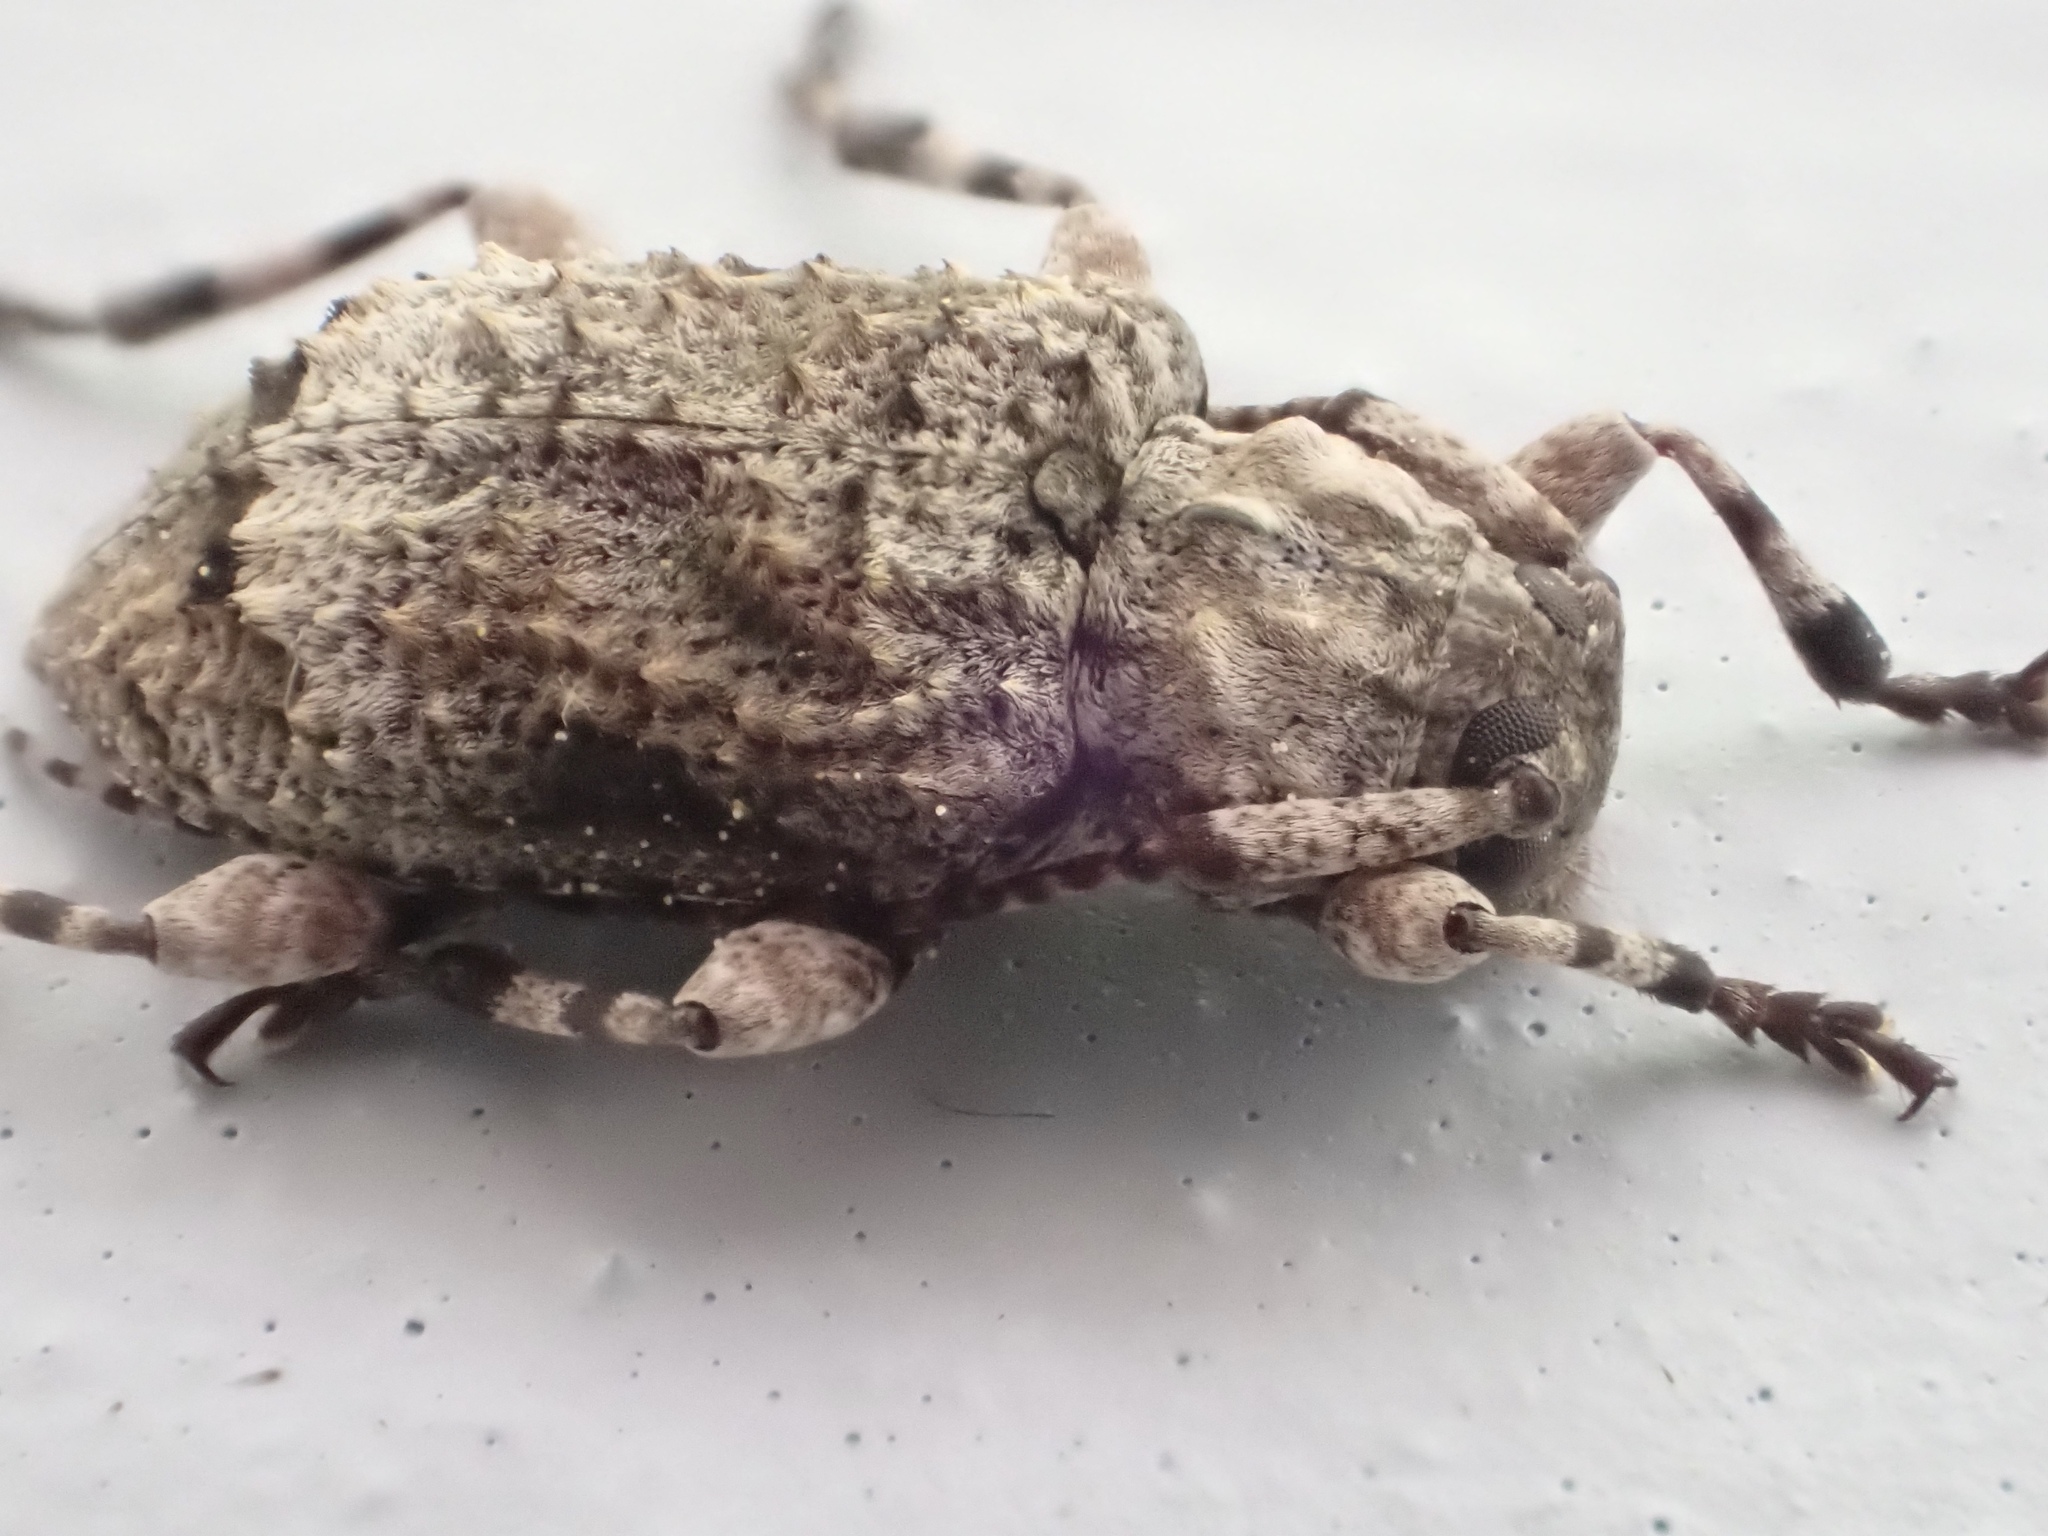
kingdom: Animalia
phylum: Arthropoda
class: Insecta
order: Coleoptera
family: Cerambycidae
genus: Leptostylus
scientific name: Leptostylus transversus
